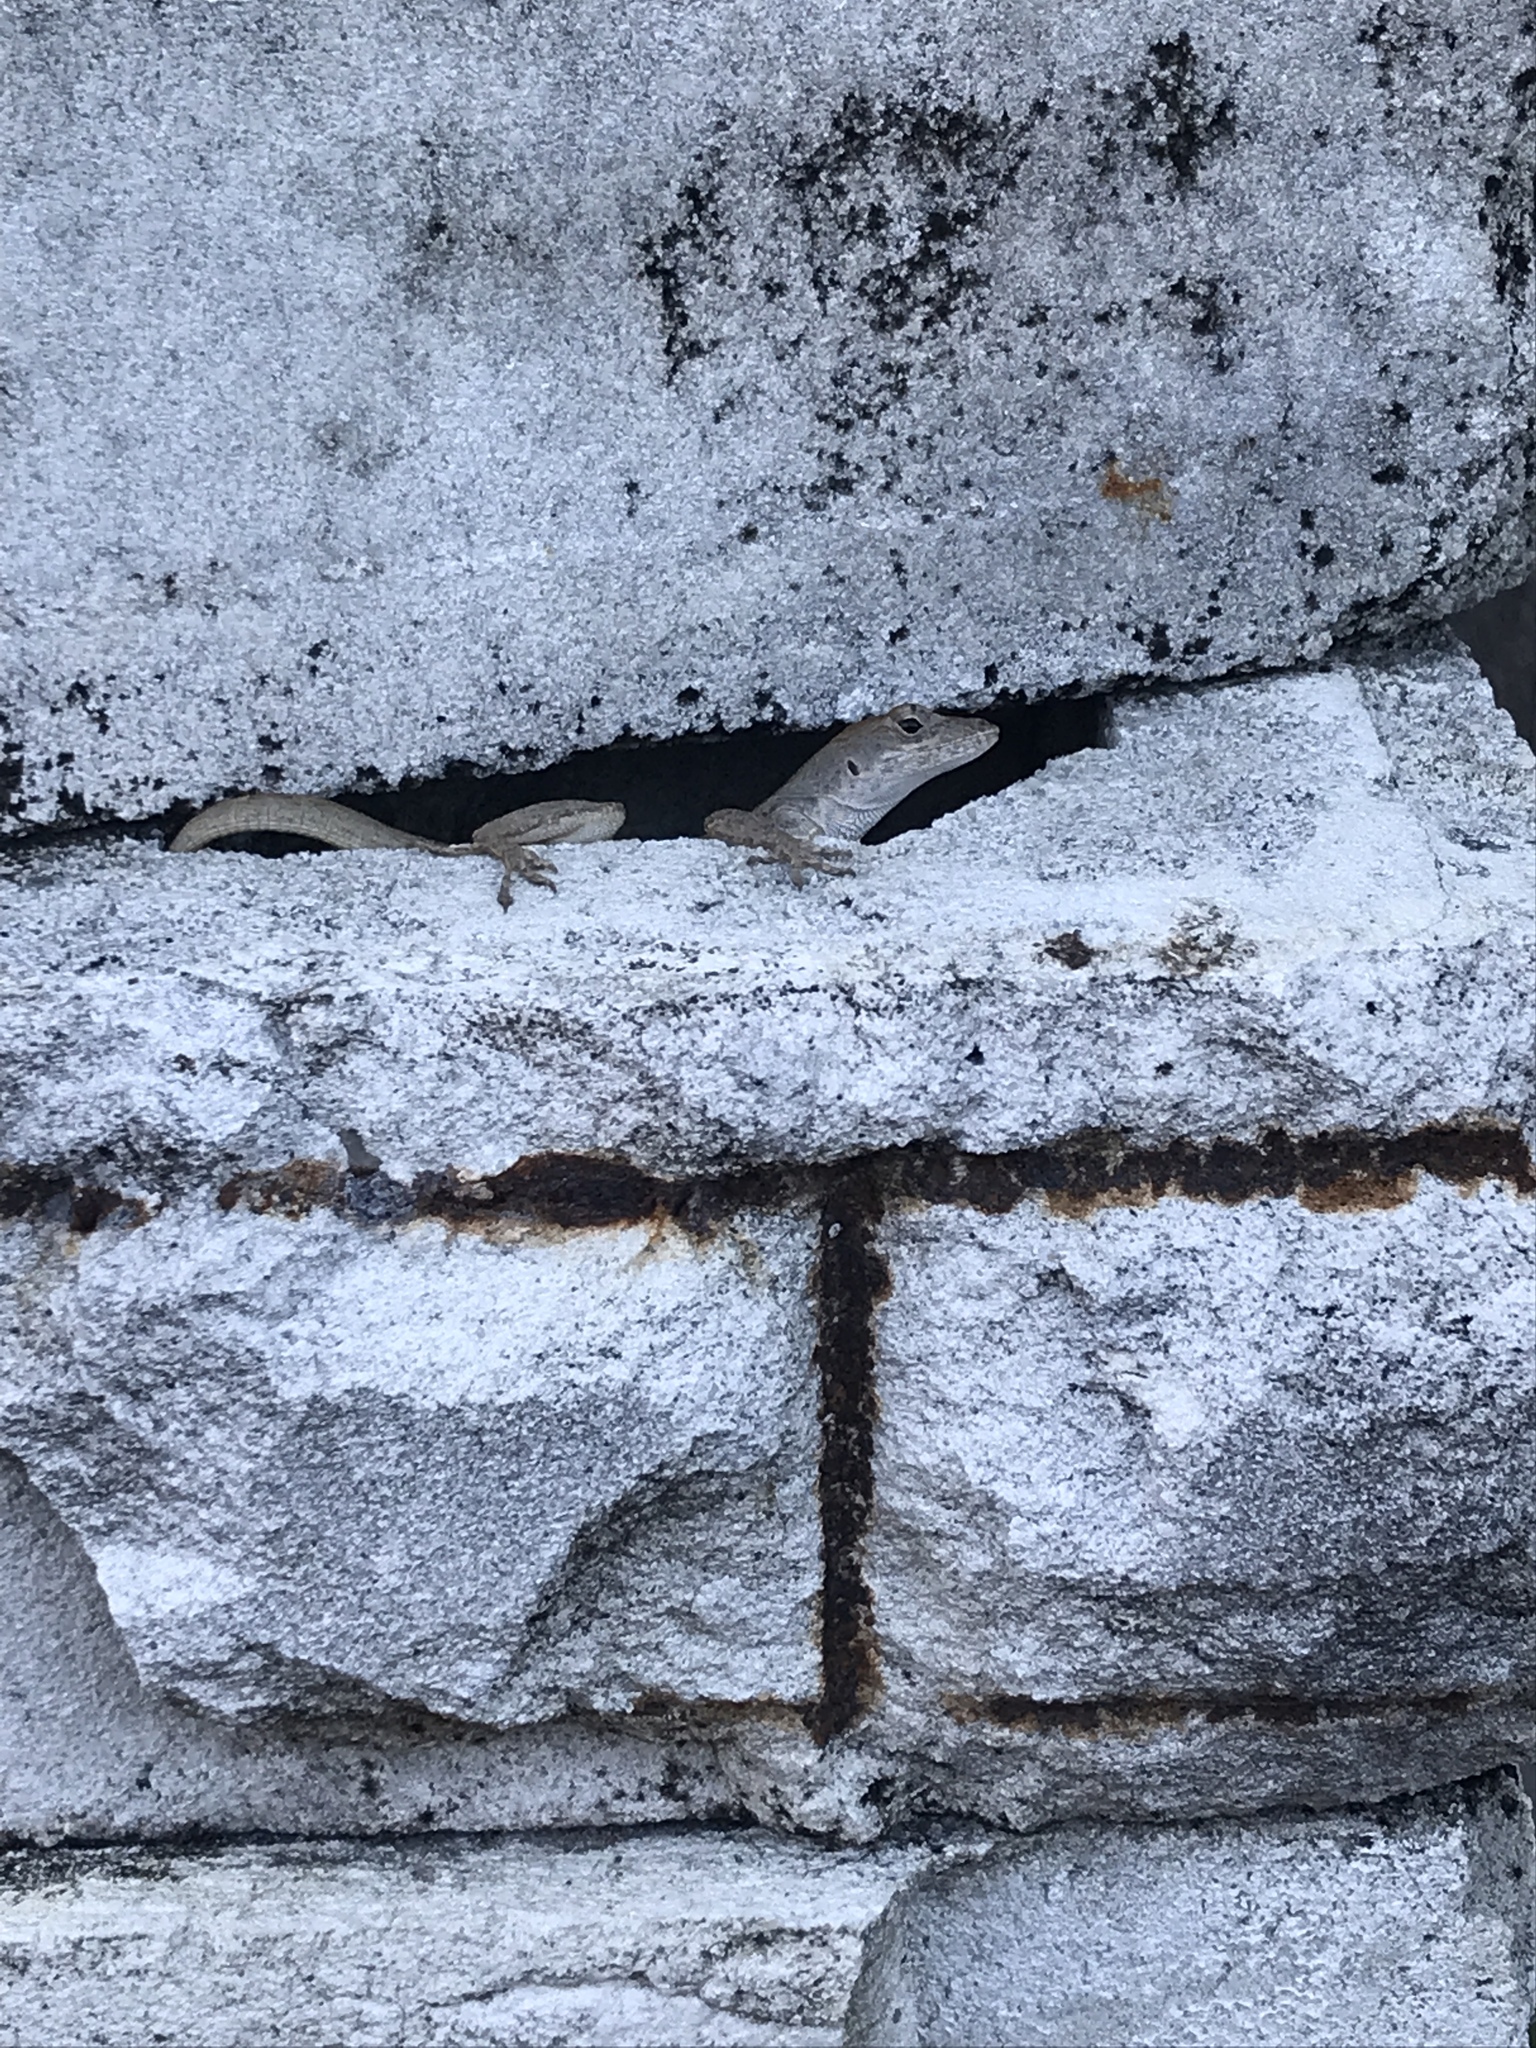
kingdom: Animalia
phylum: Chordata
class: Squamata
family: Dactyloidae
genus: Anolis
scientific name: Anolis sagrei
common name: Brown anole
